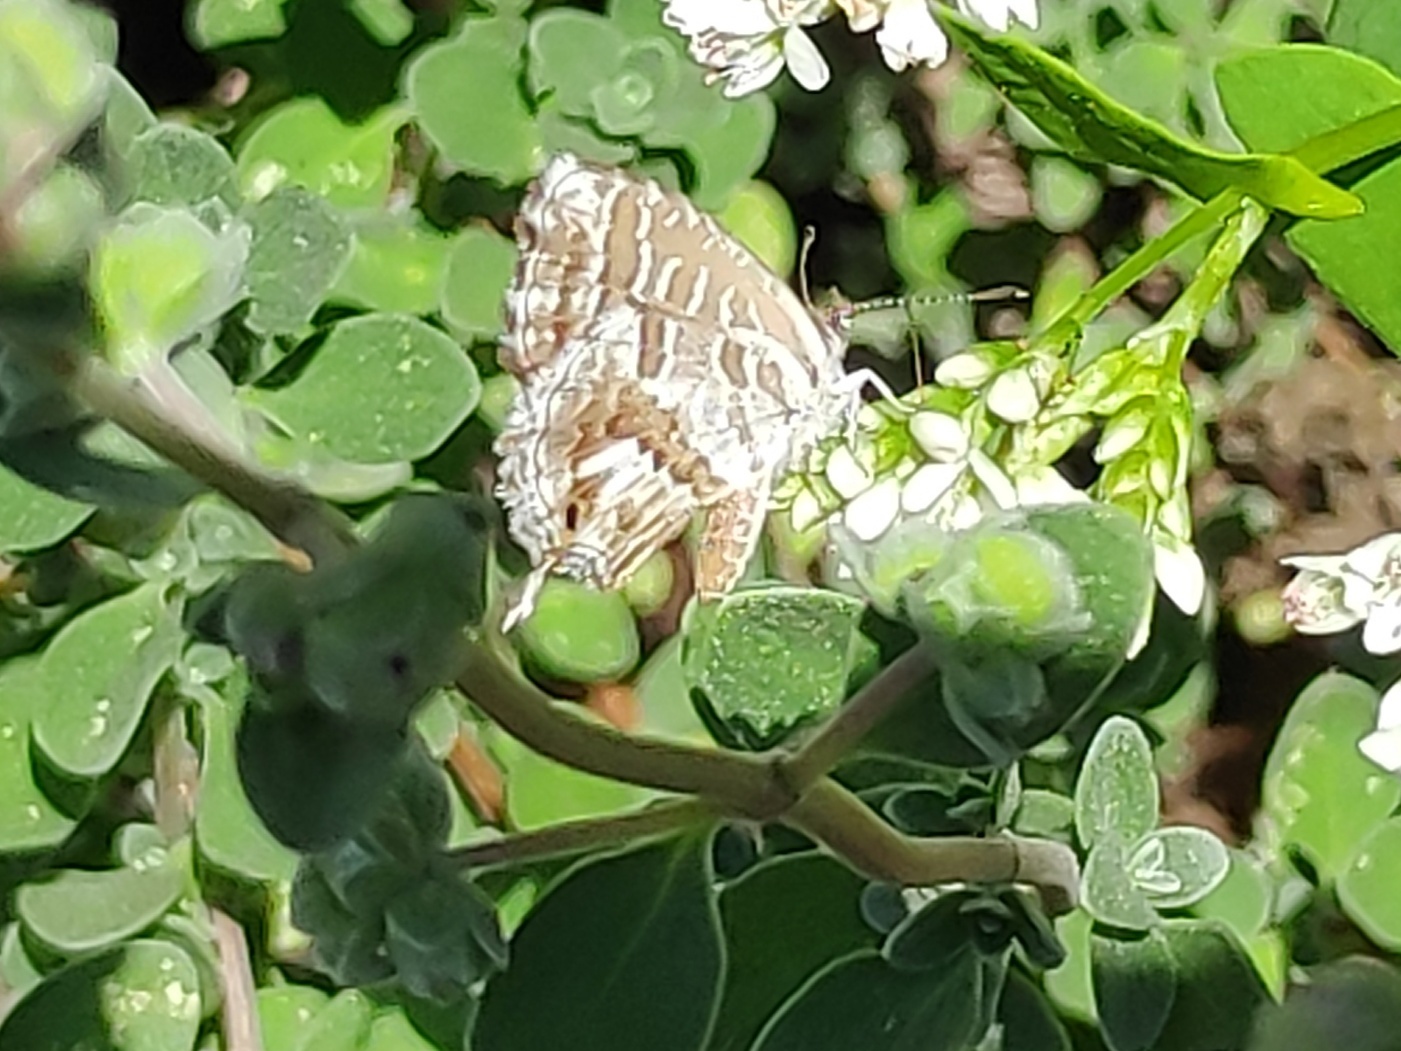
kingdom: Animalia
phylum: Arthropoda
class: Insecta
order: Lepidoptera
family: Lycaenidae
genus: Cacyreus
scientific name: Cacyreus marshalli
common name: Geranium bronze
